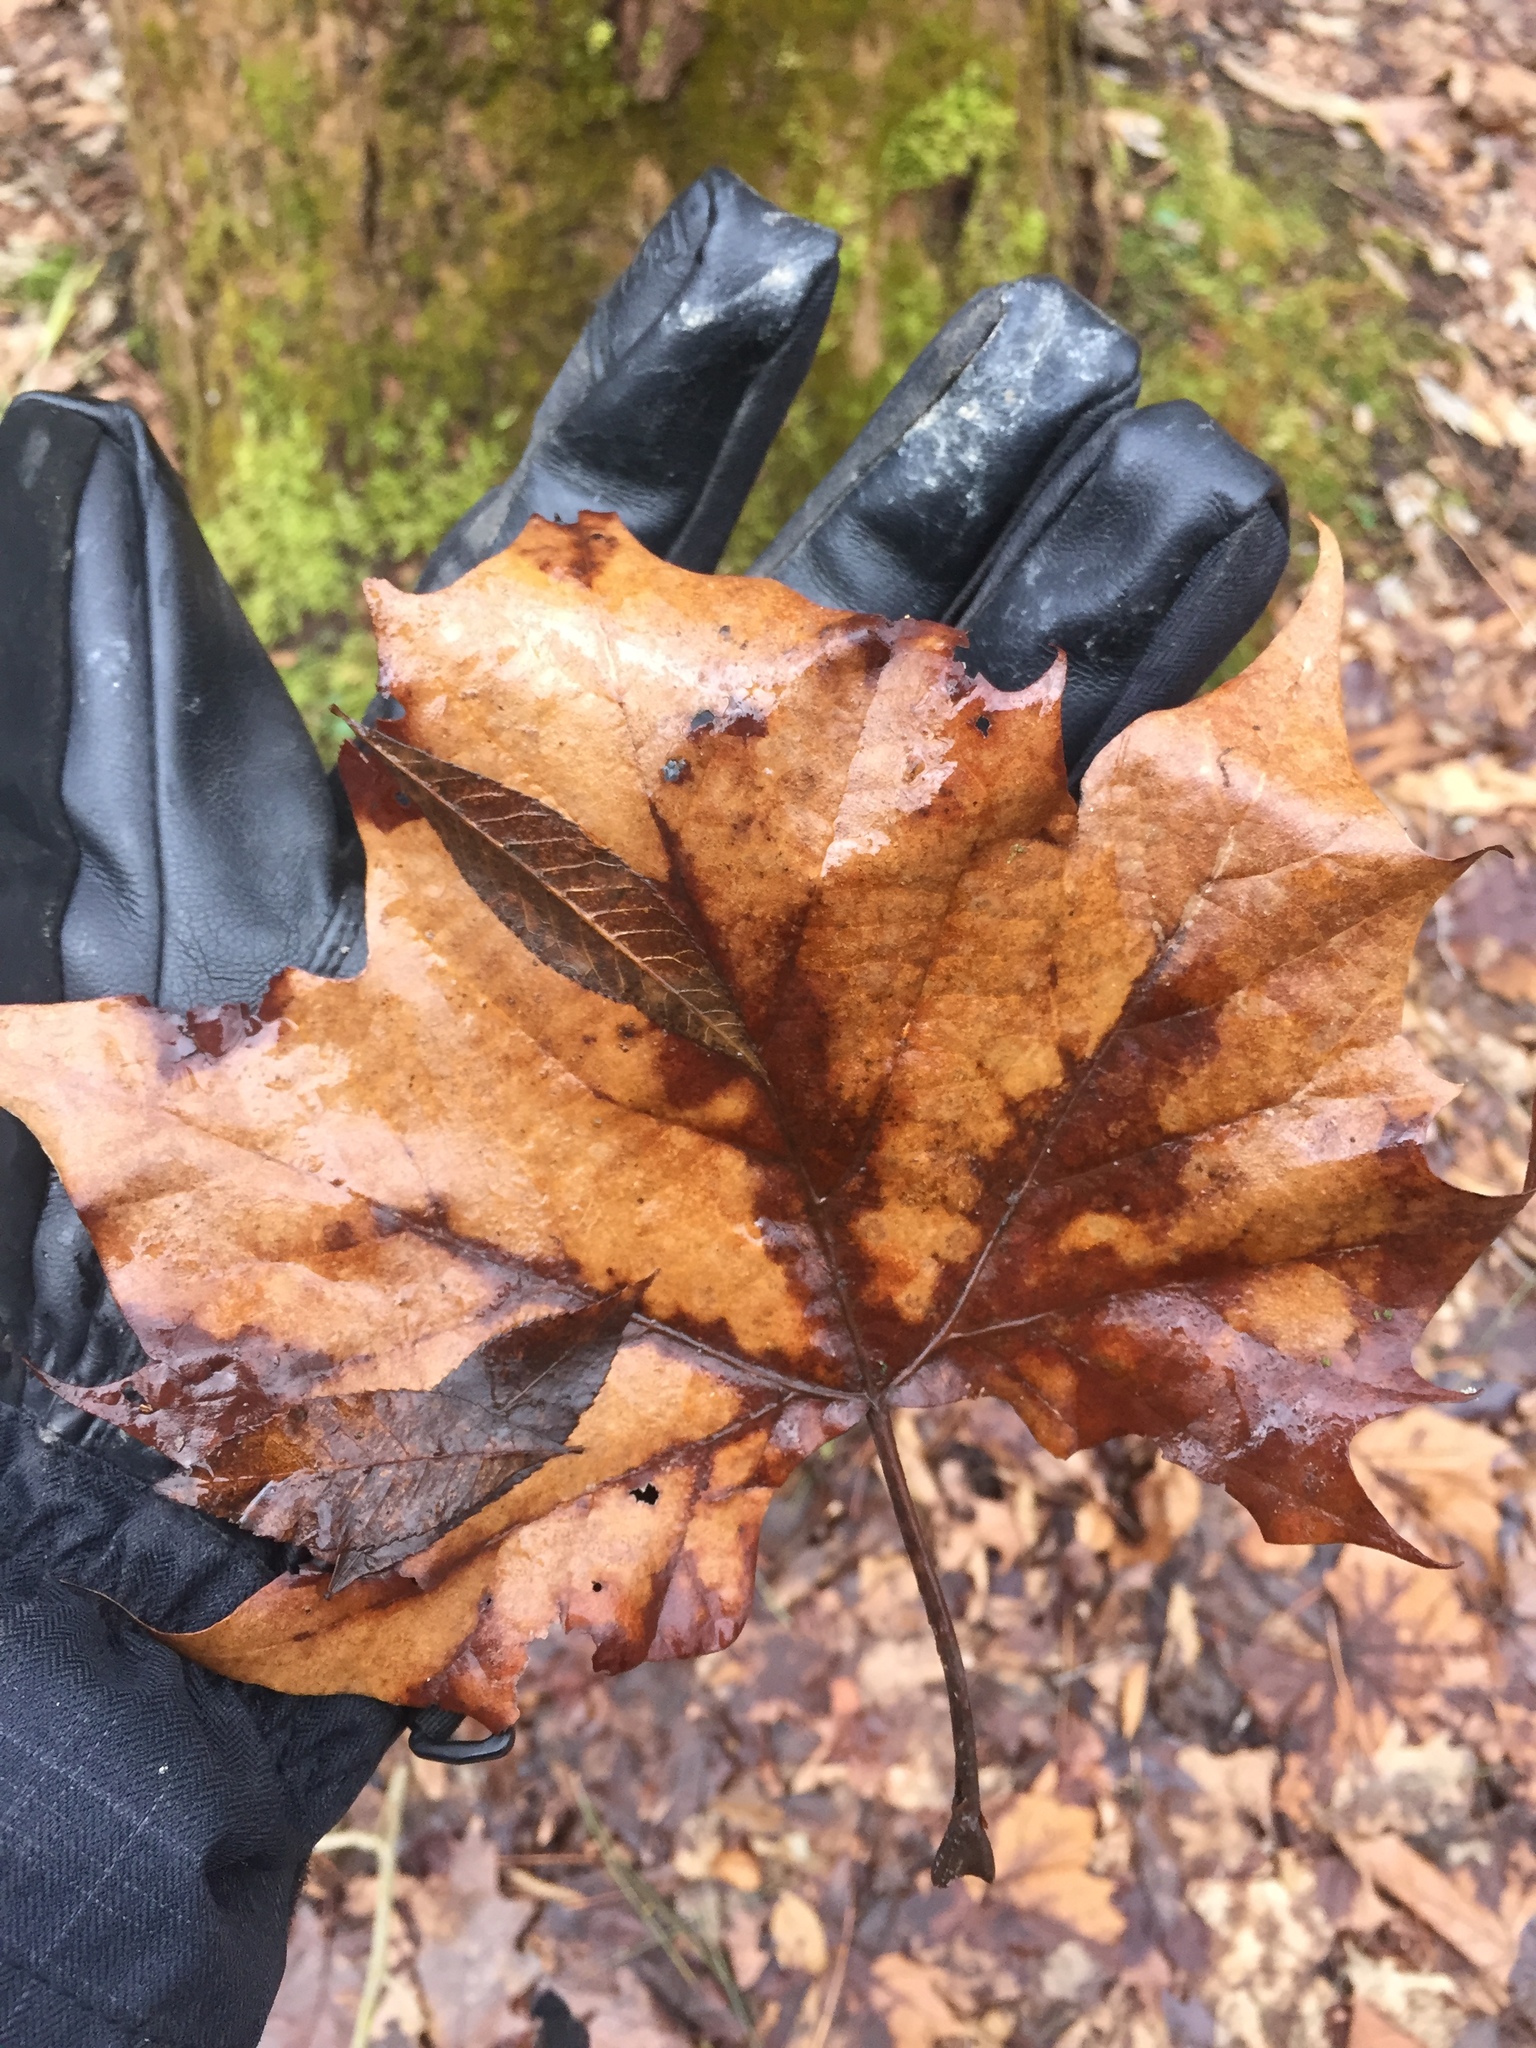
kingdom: Plantae
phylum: Tracheophyta
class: Magnoliopsida
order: Proteales
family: Platanaceae
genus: Platanus
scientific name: Platanus occidentalis
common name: American sycamore
